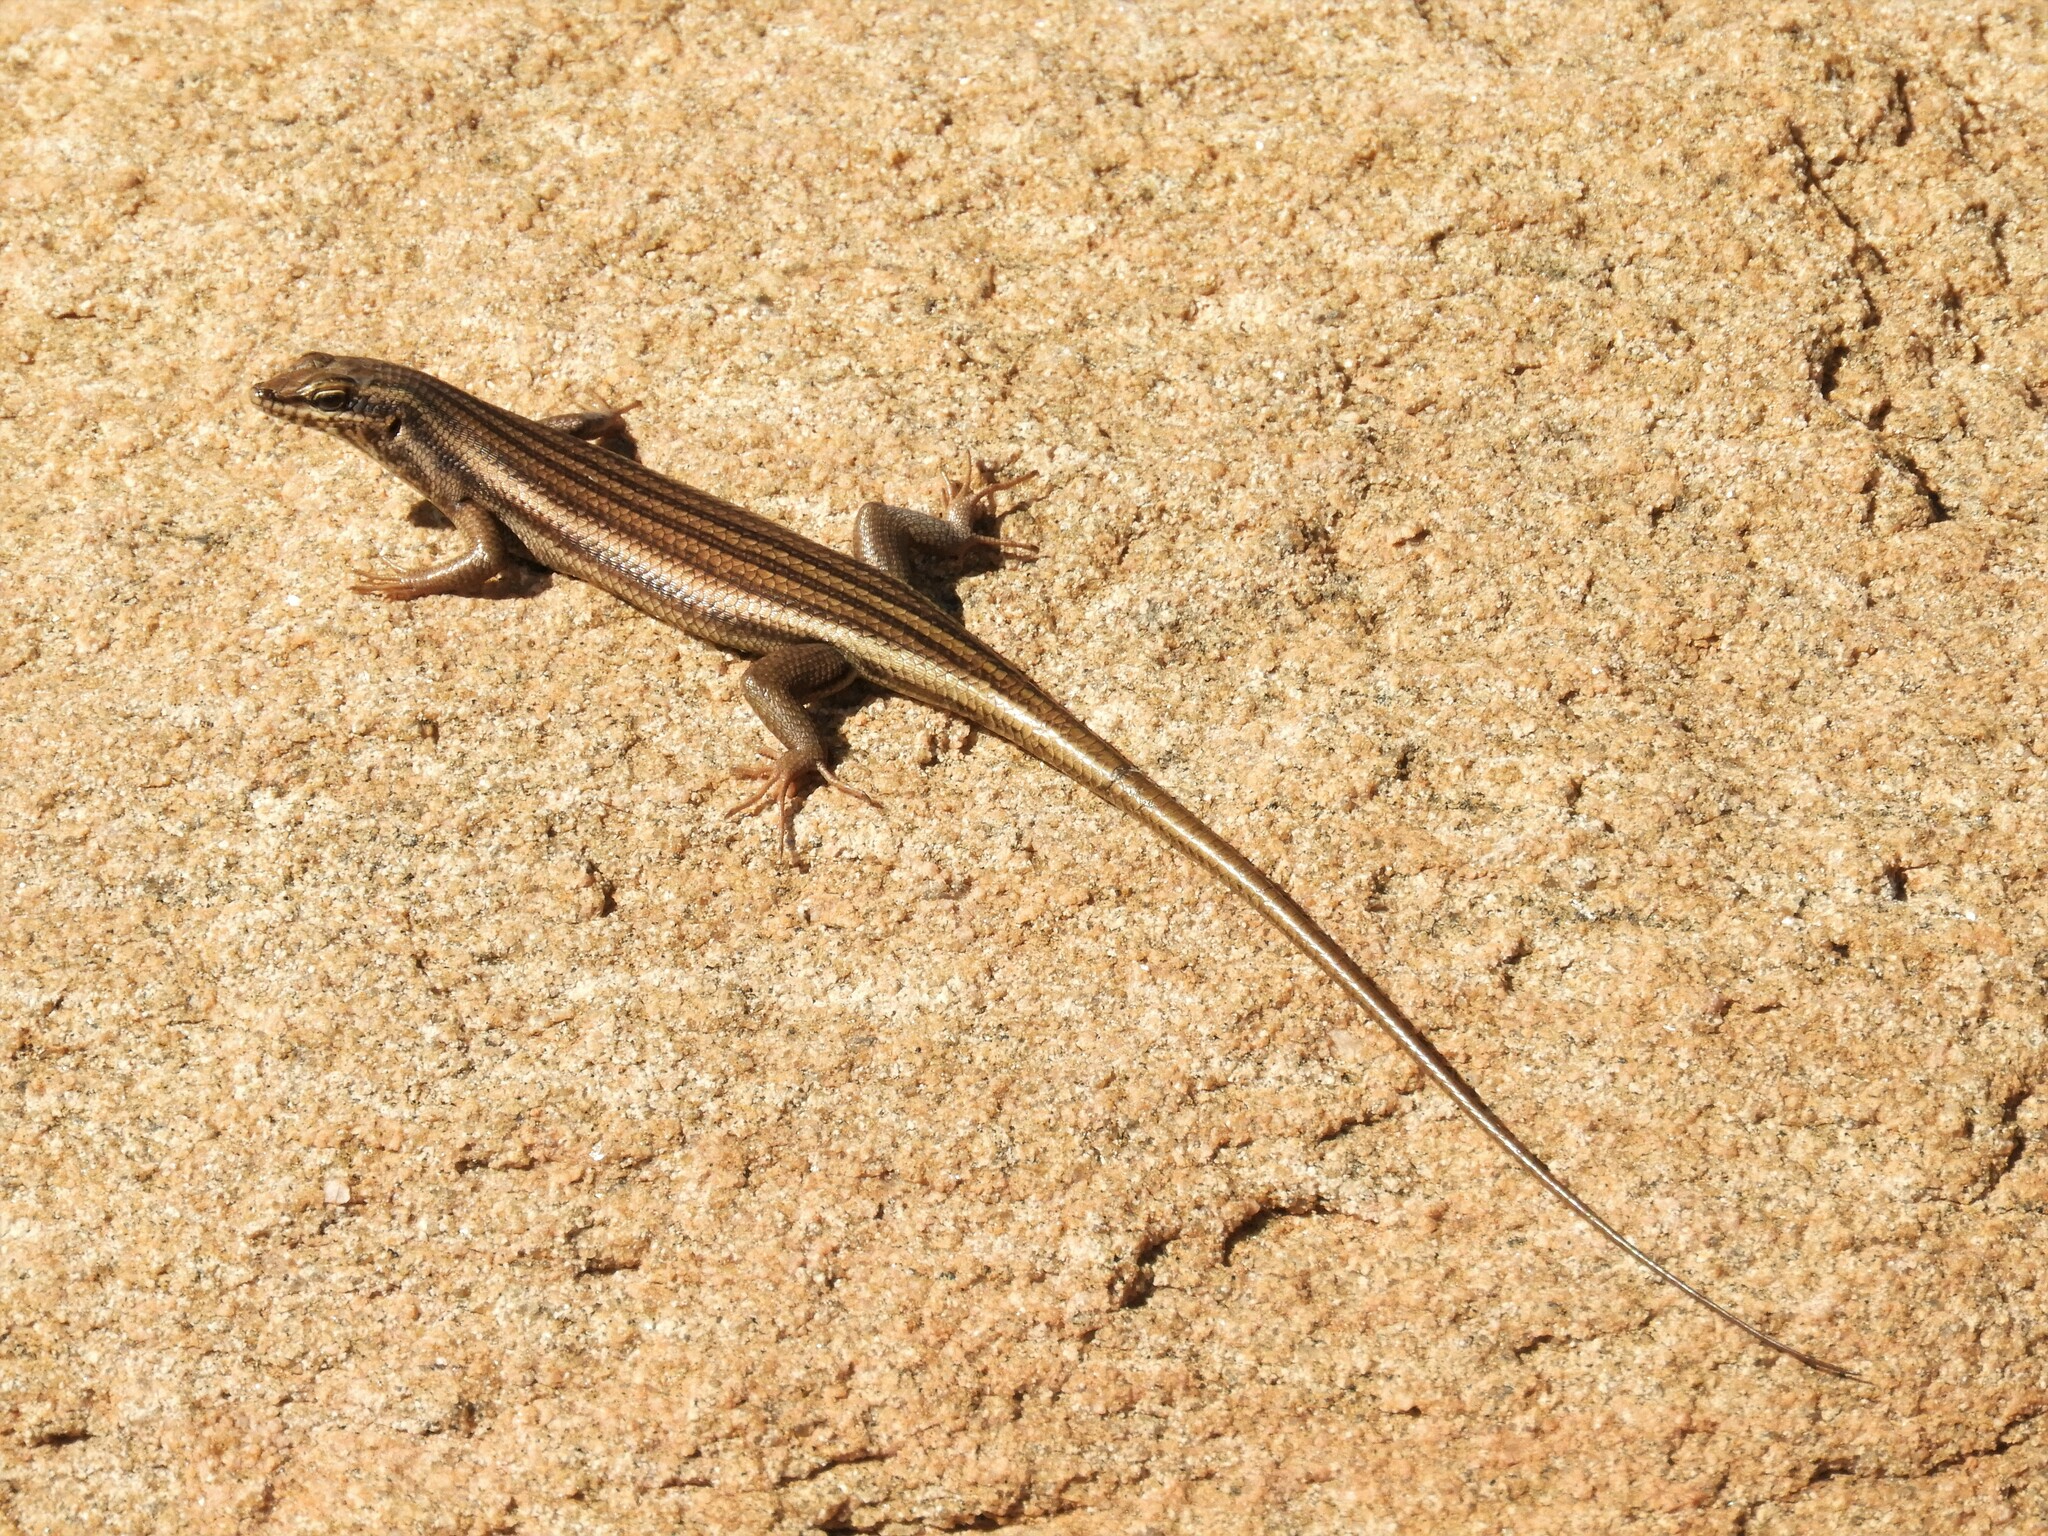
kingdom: Animalia
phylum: Chordata
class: Squamata
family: Scincidae
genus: Trachylepis
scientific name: Trachylepis sulcata
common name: Western rock skink
